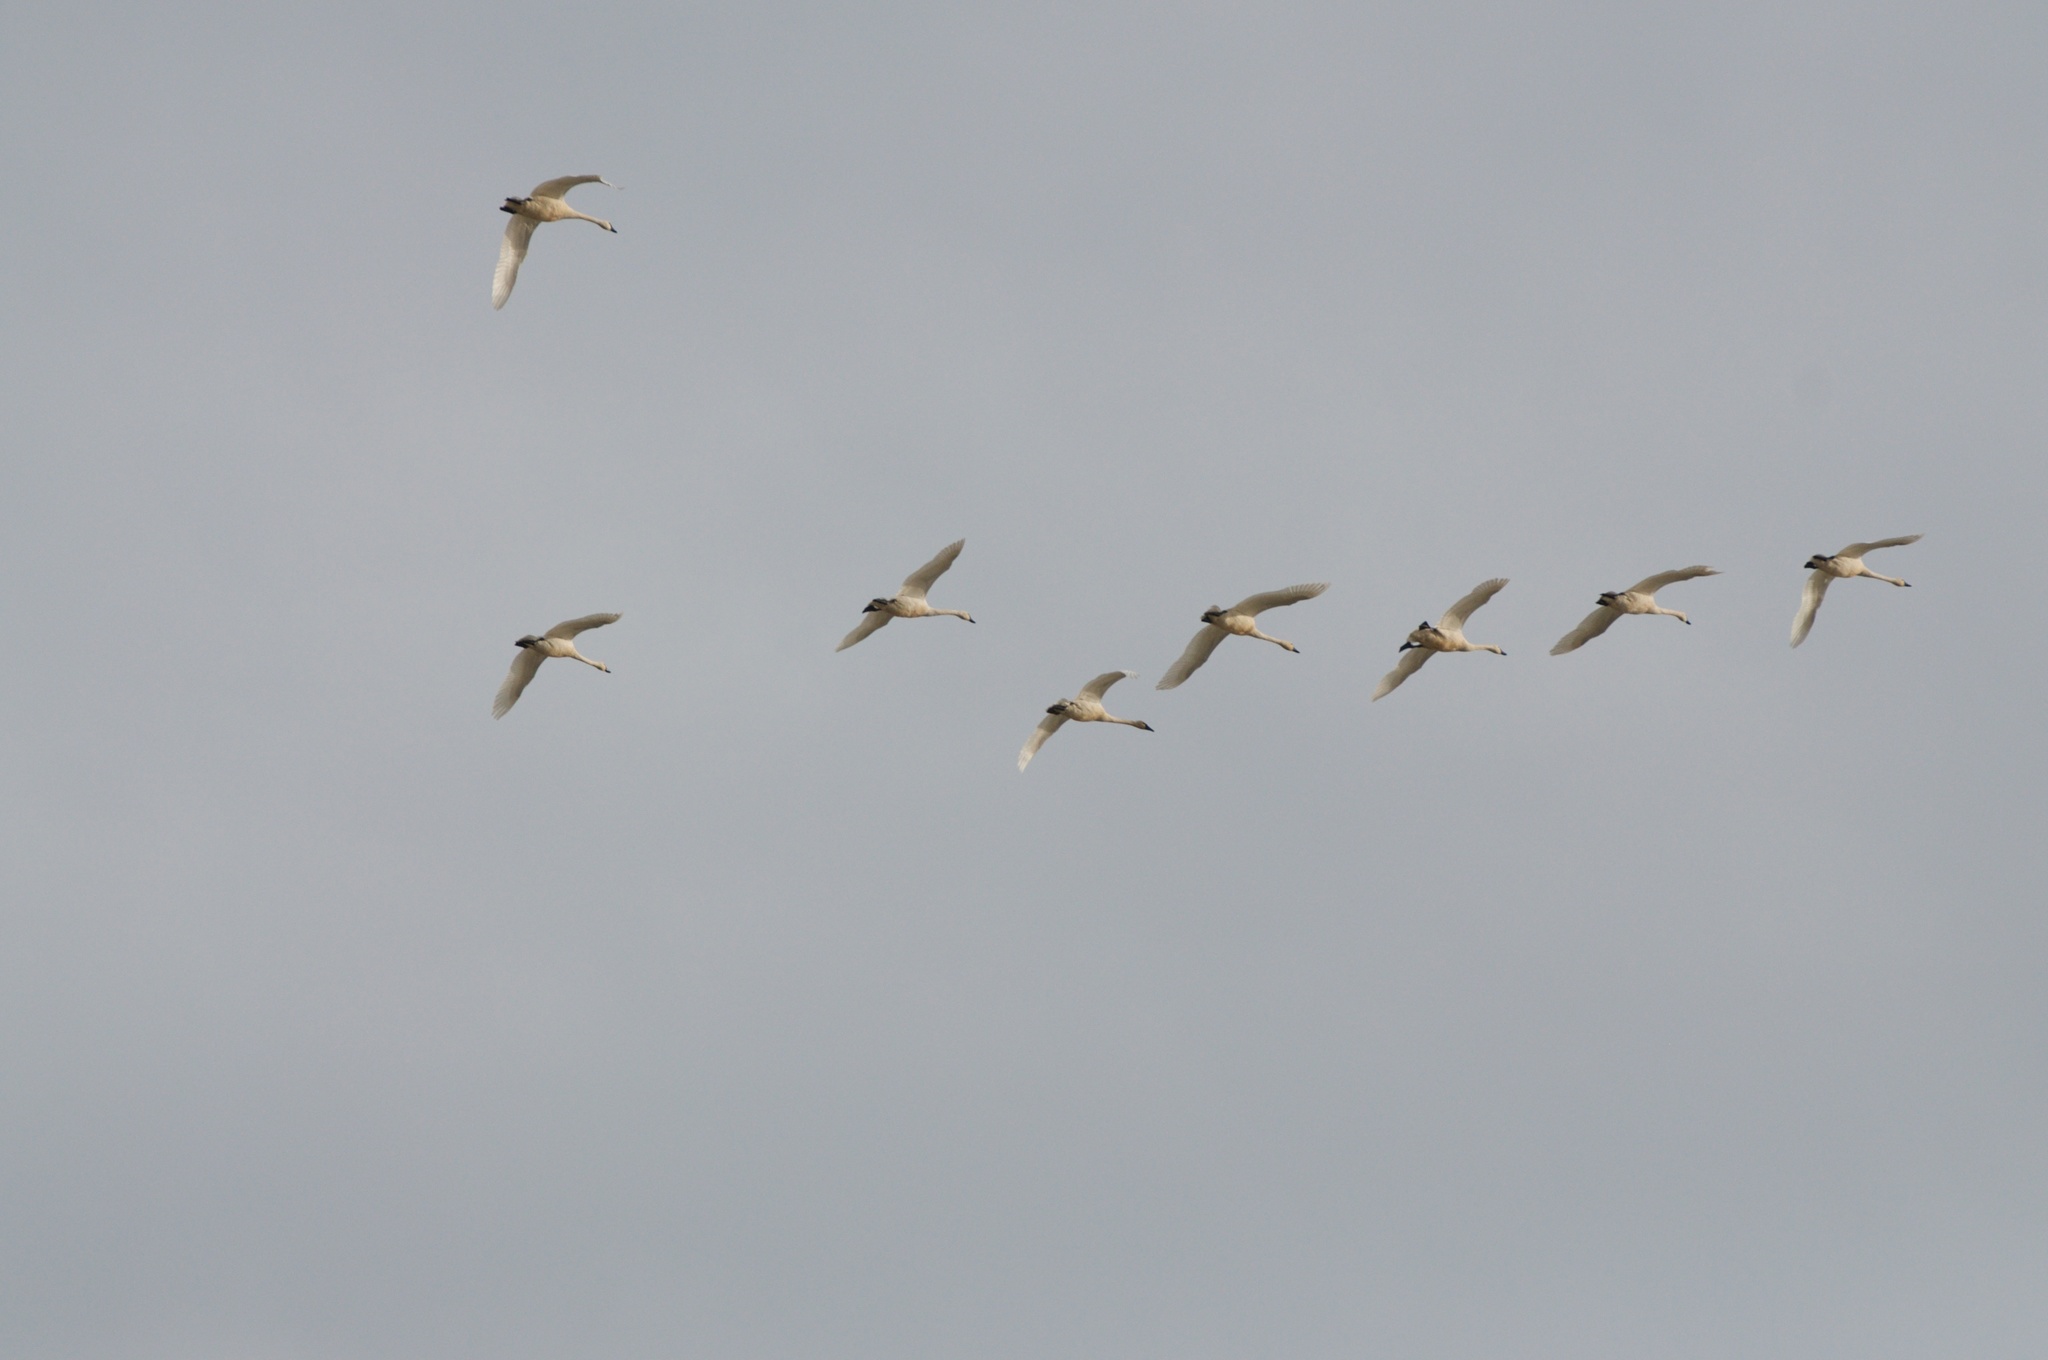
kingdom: Animalia
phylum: Chordata
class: Aves
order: Anseriformes
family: Anatidae
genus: Cygnus
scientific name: Cygnus columbianus
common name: Tundra swan
